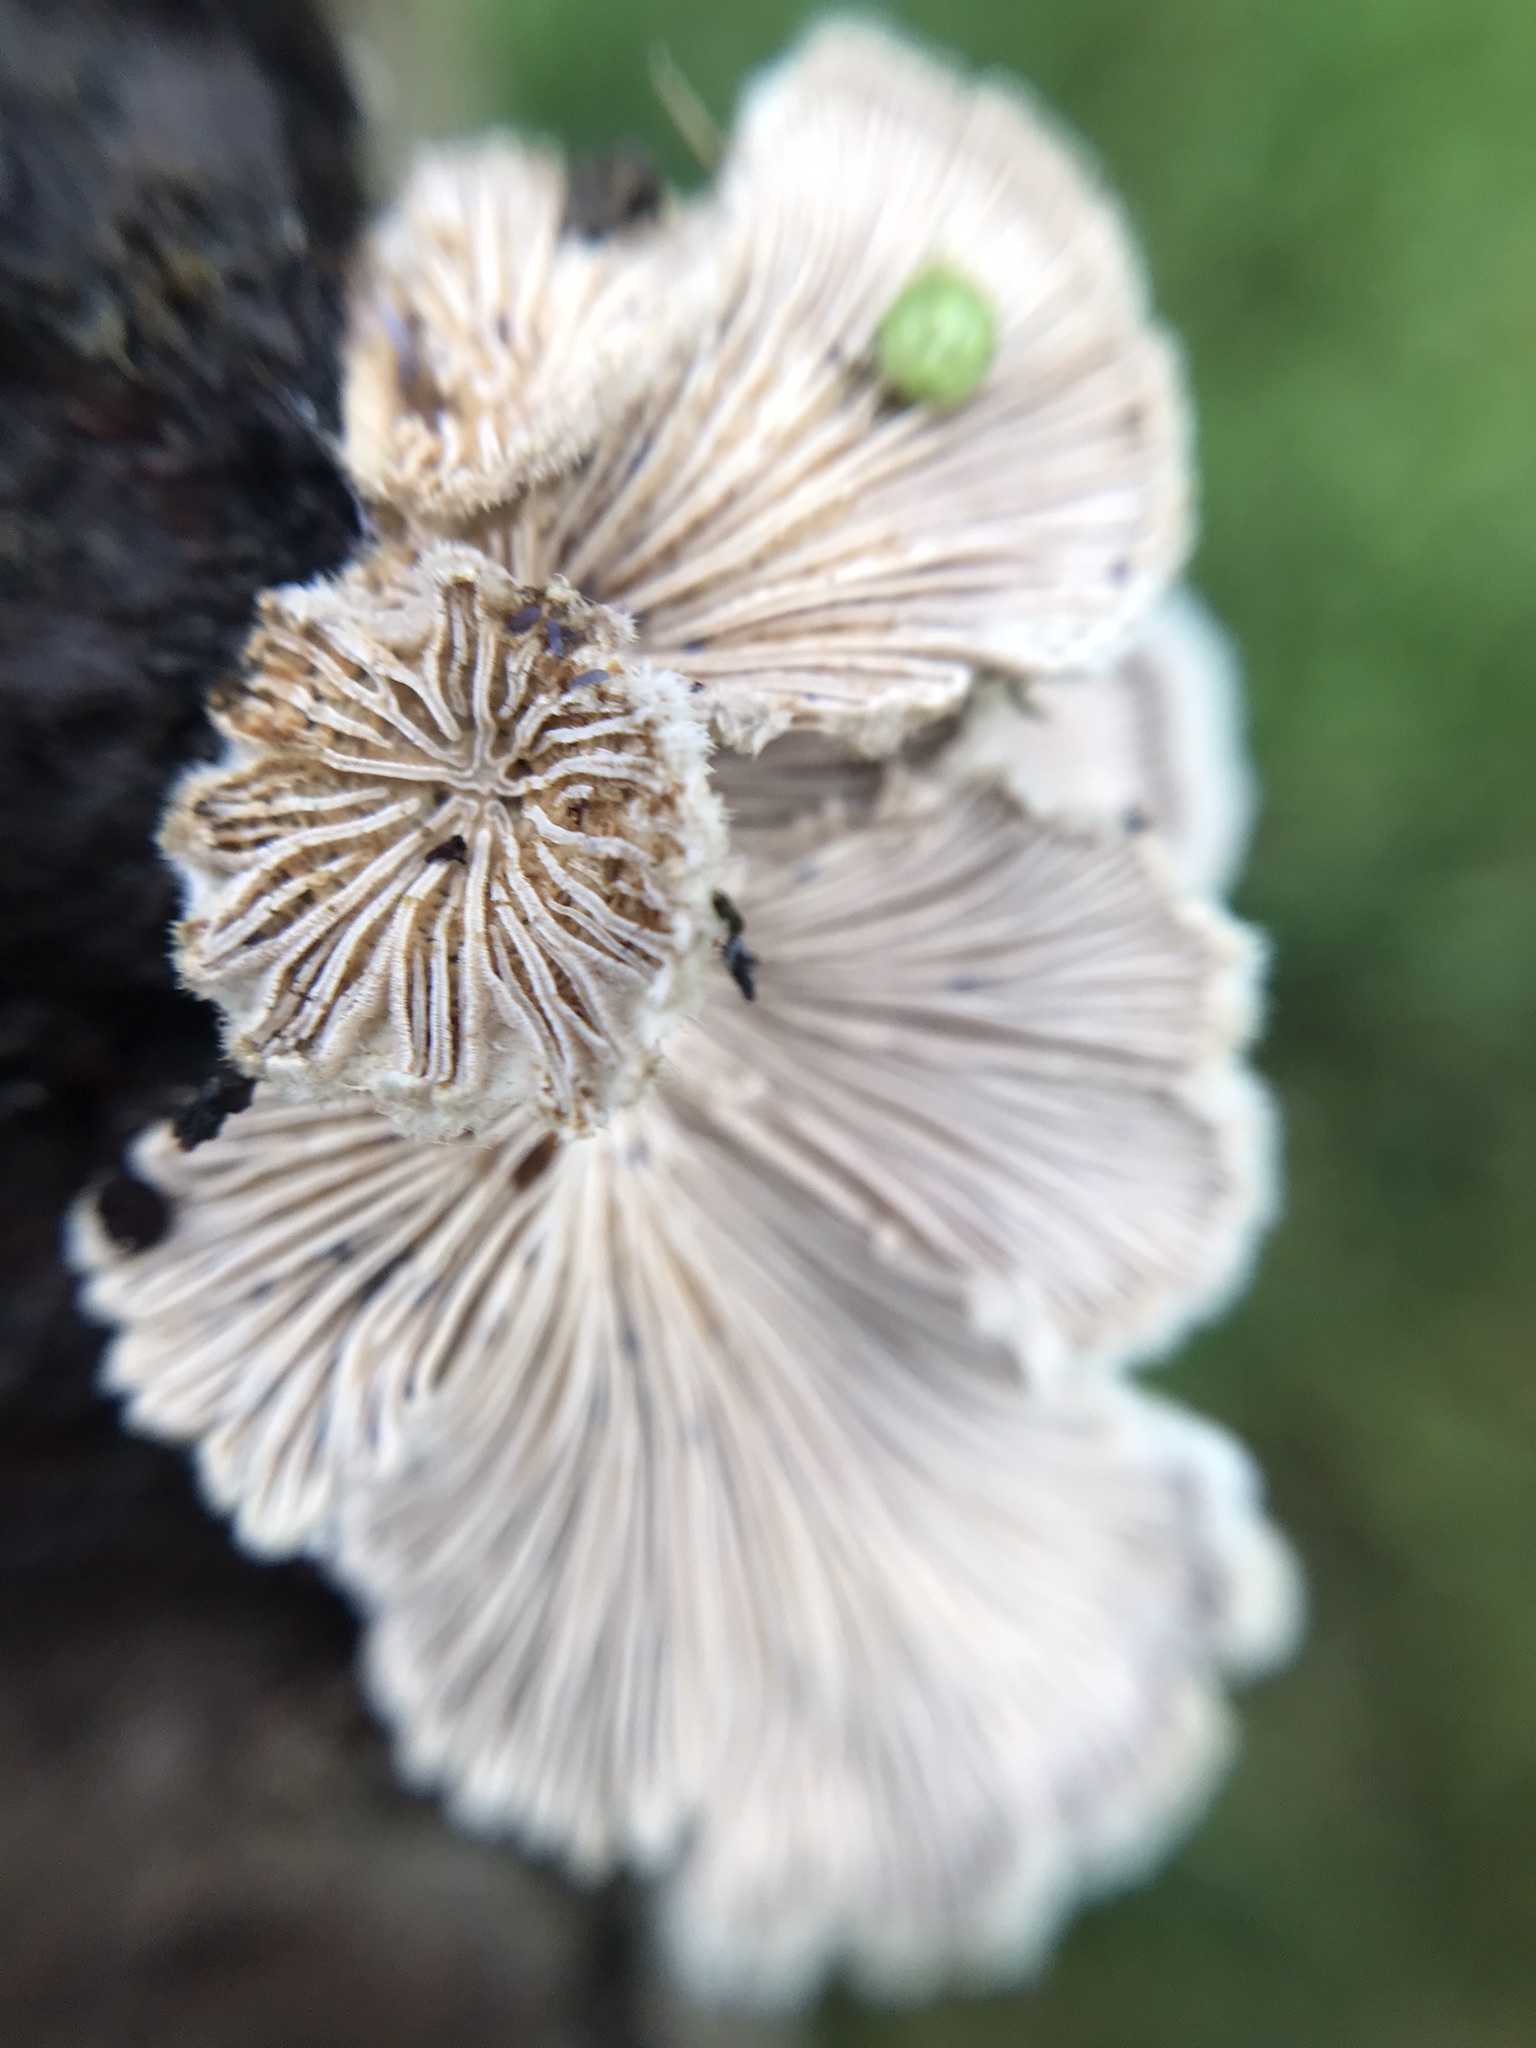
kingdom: Fungi
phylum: Basidiomycota
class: Agaricomycetes
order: Agaricales
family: Schizophyllaceae
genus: Schizophyllum
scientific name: Schizophyllum commune
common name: Common porecrust
